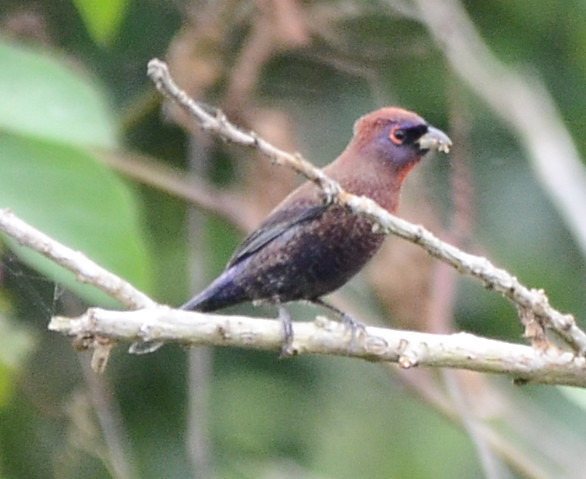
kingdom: Animalia
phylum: Chordata
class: Aves
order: Passeriformes
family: Cardinalidae
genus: Passerina
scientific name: Passerina versicolor
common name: Varied bunting
